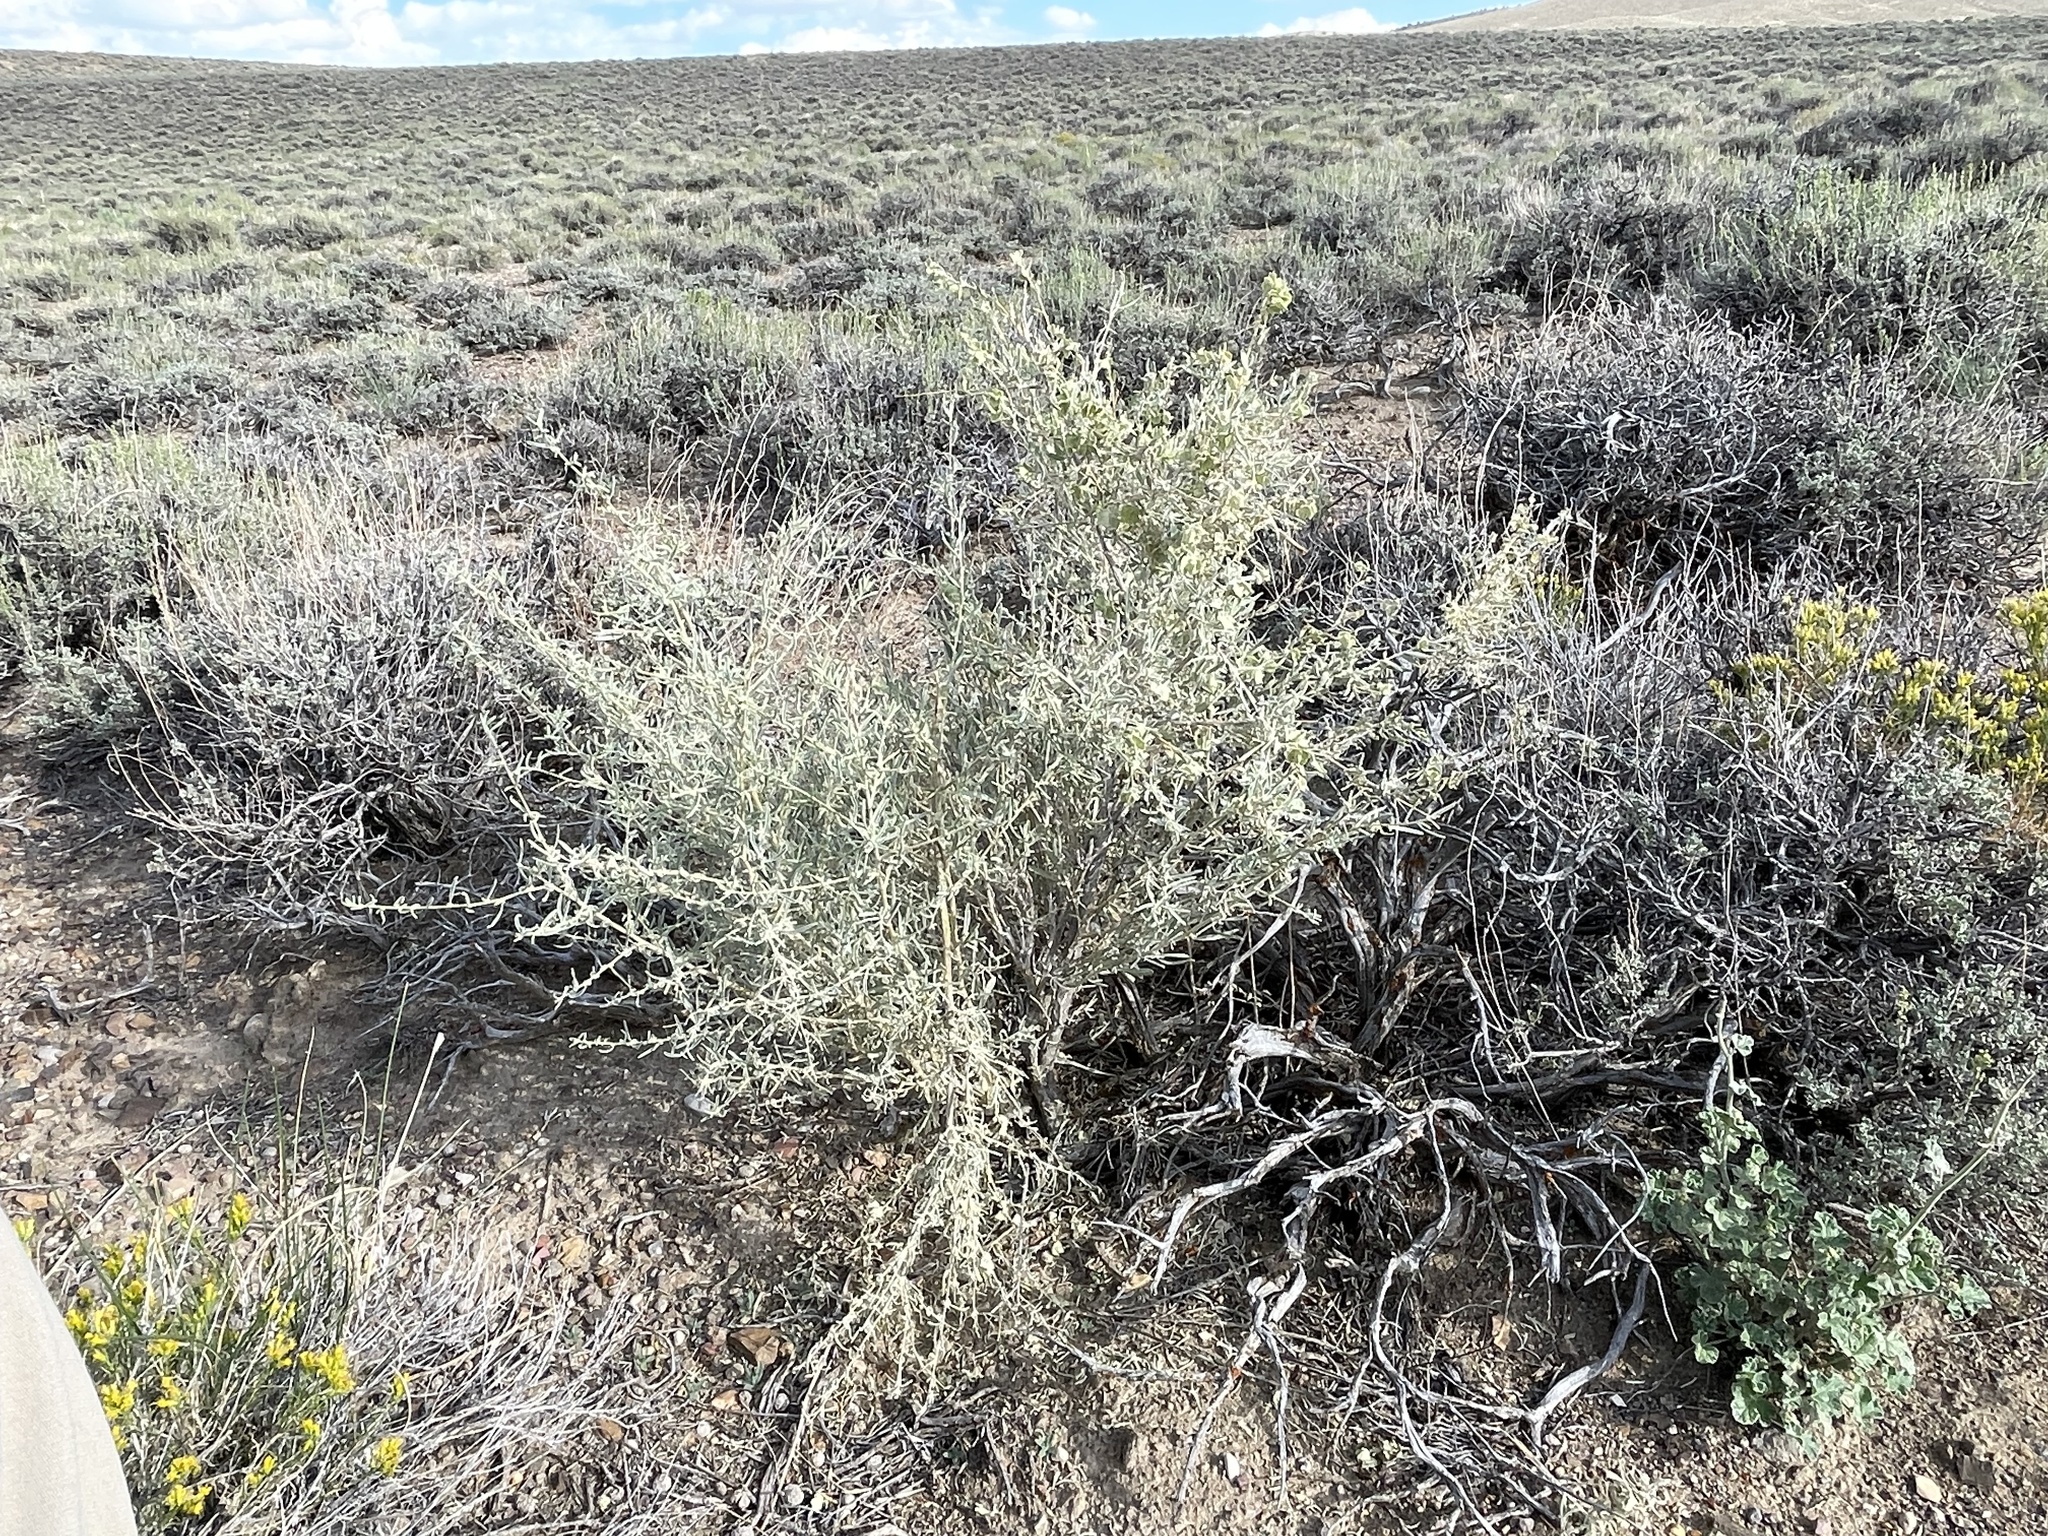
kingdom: Plantae
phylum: Tracheophyta
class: Magnoliopsida
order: Caryophyllales
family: Amaranthaceae
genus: Atriplex
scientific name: Atriplex canescens
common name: Four-wing saltbush
